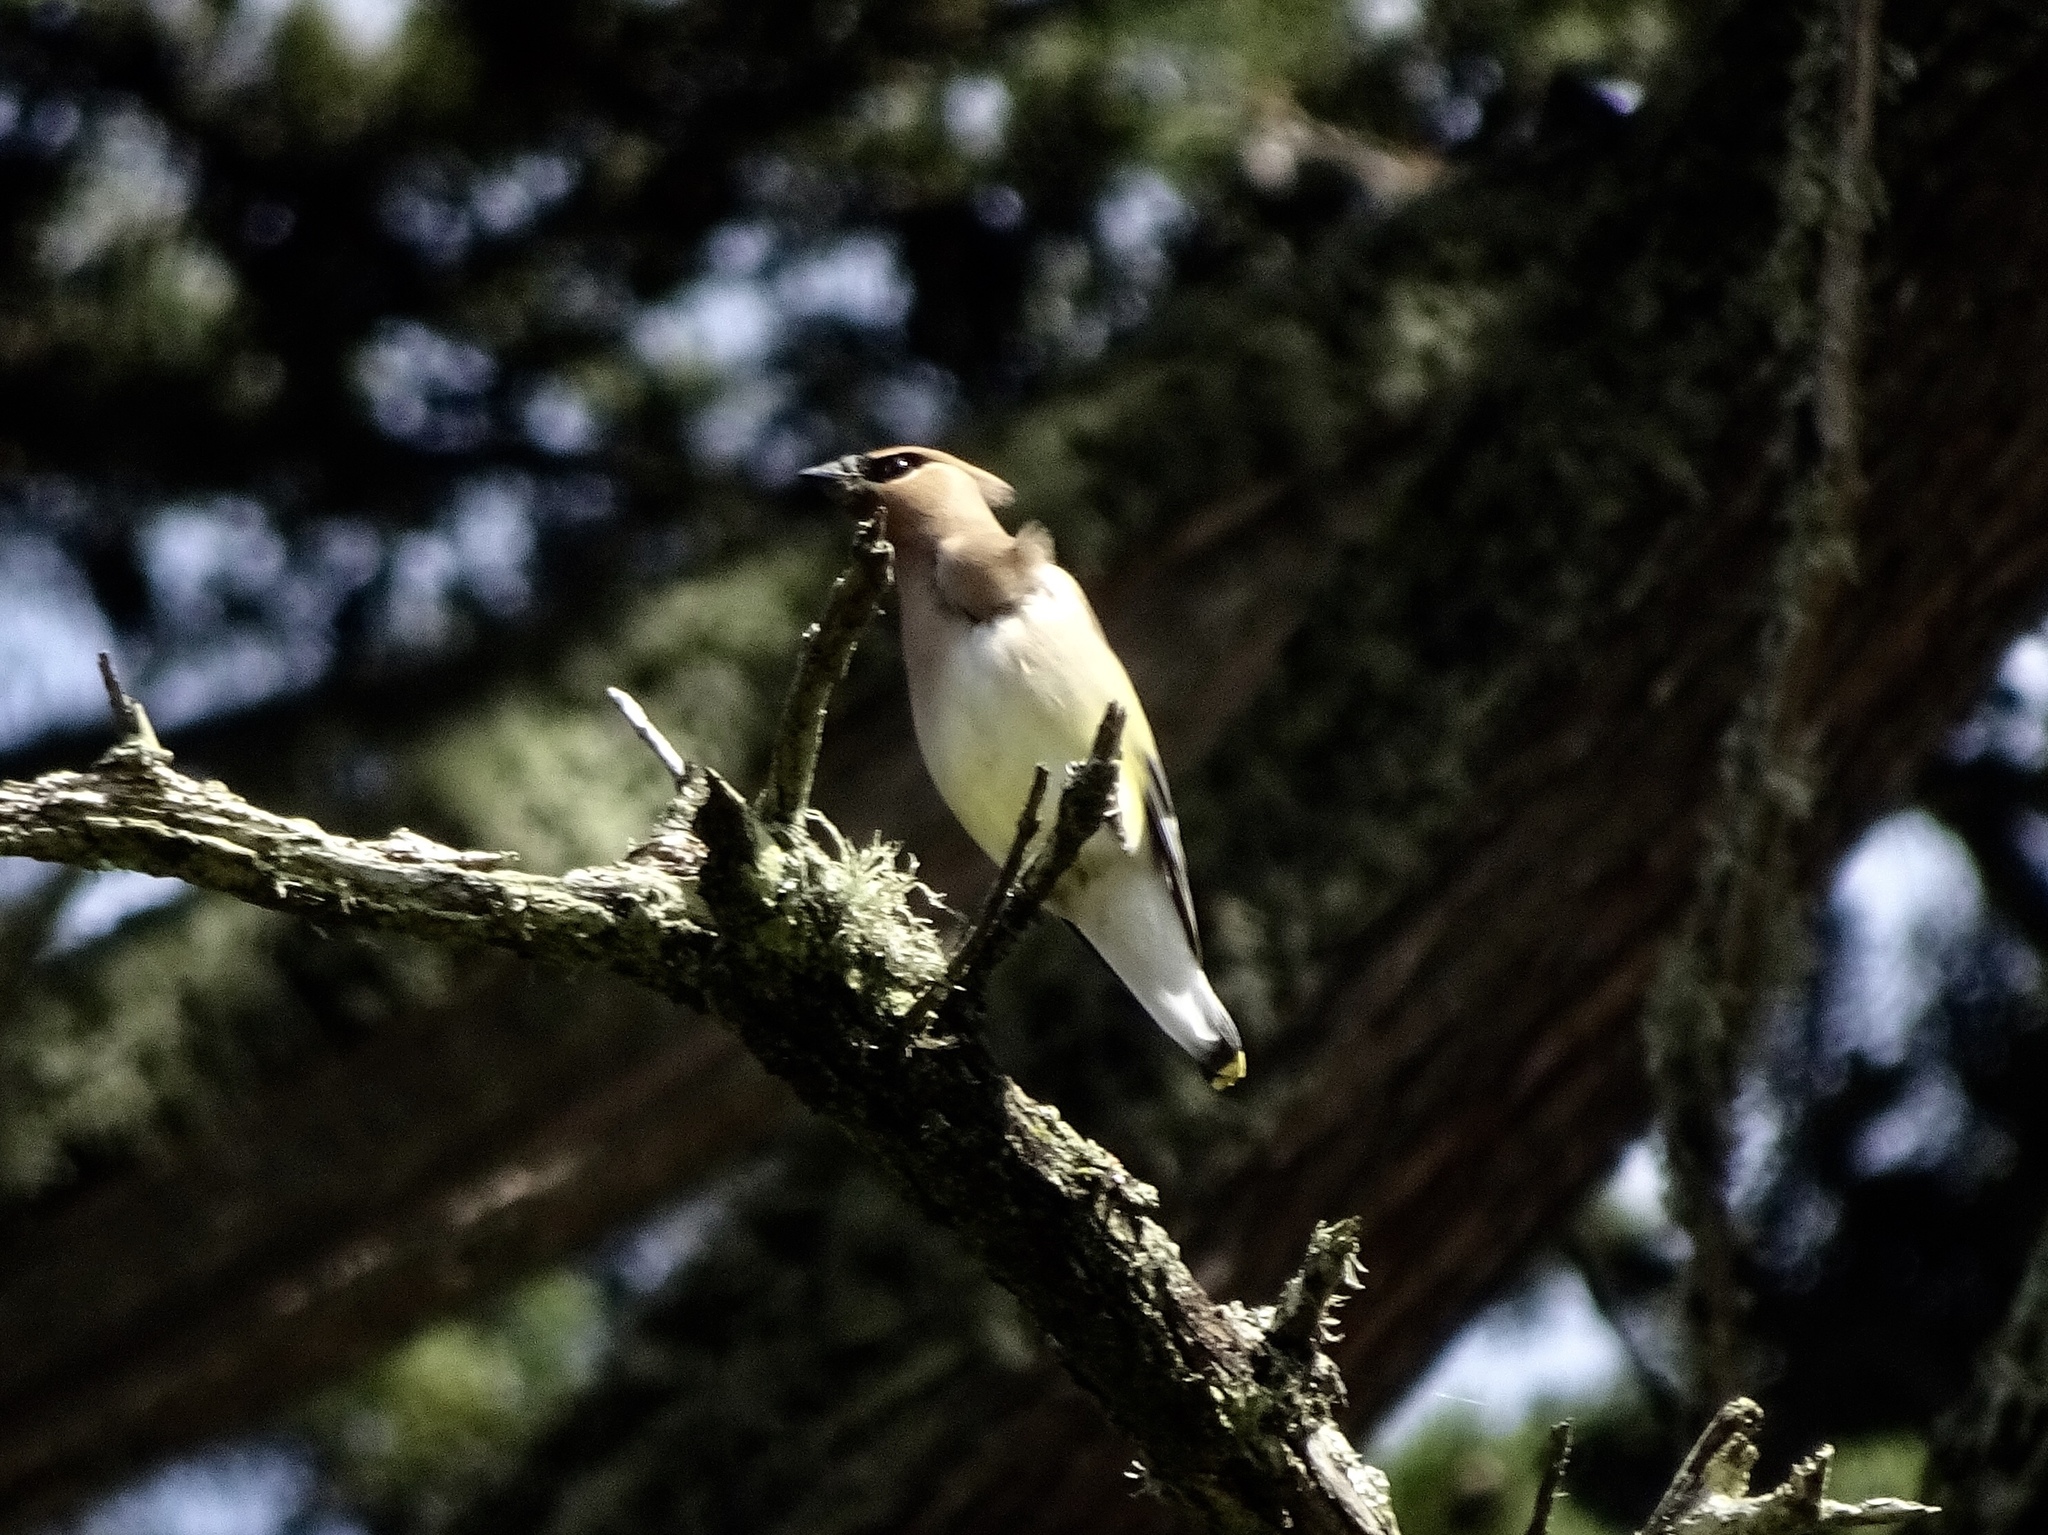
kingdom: Animalia
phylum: Chordata
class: Aves
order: Passeriformes
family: Bombycillidae
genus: Bombycilla
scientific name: Bombycilla cedrorum
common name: Cedar waxwing
